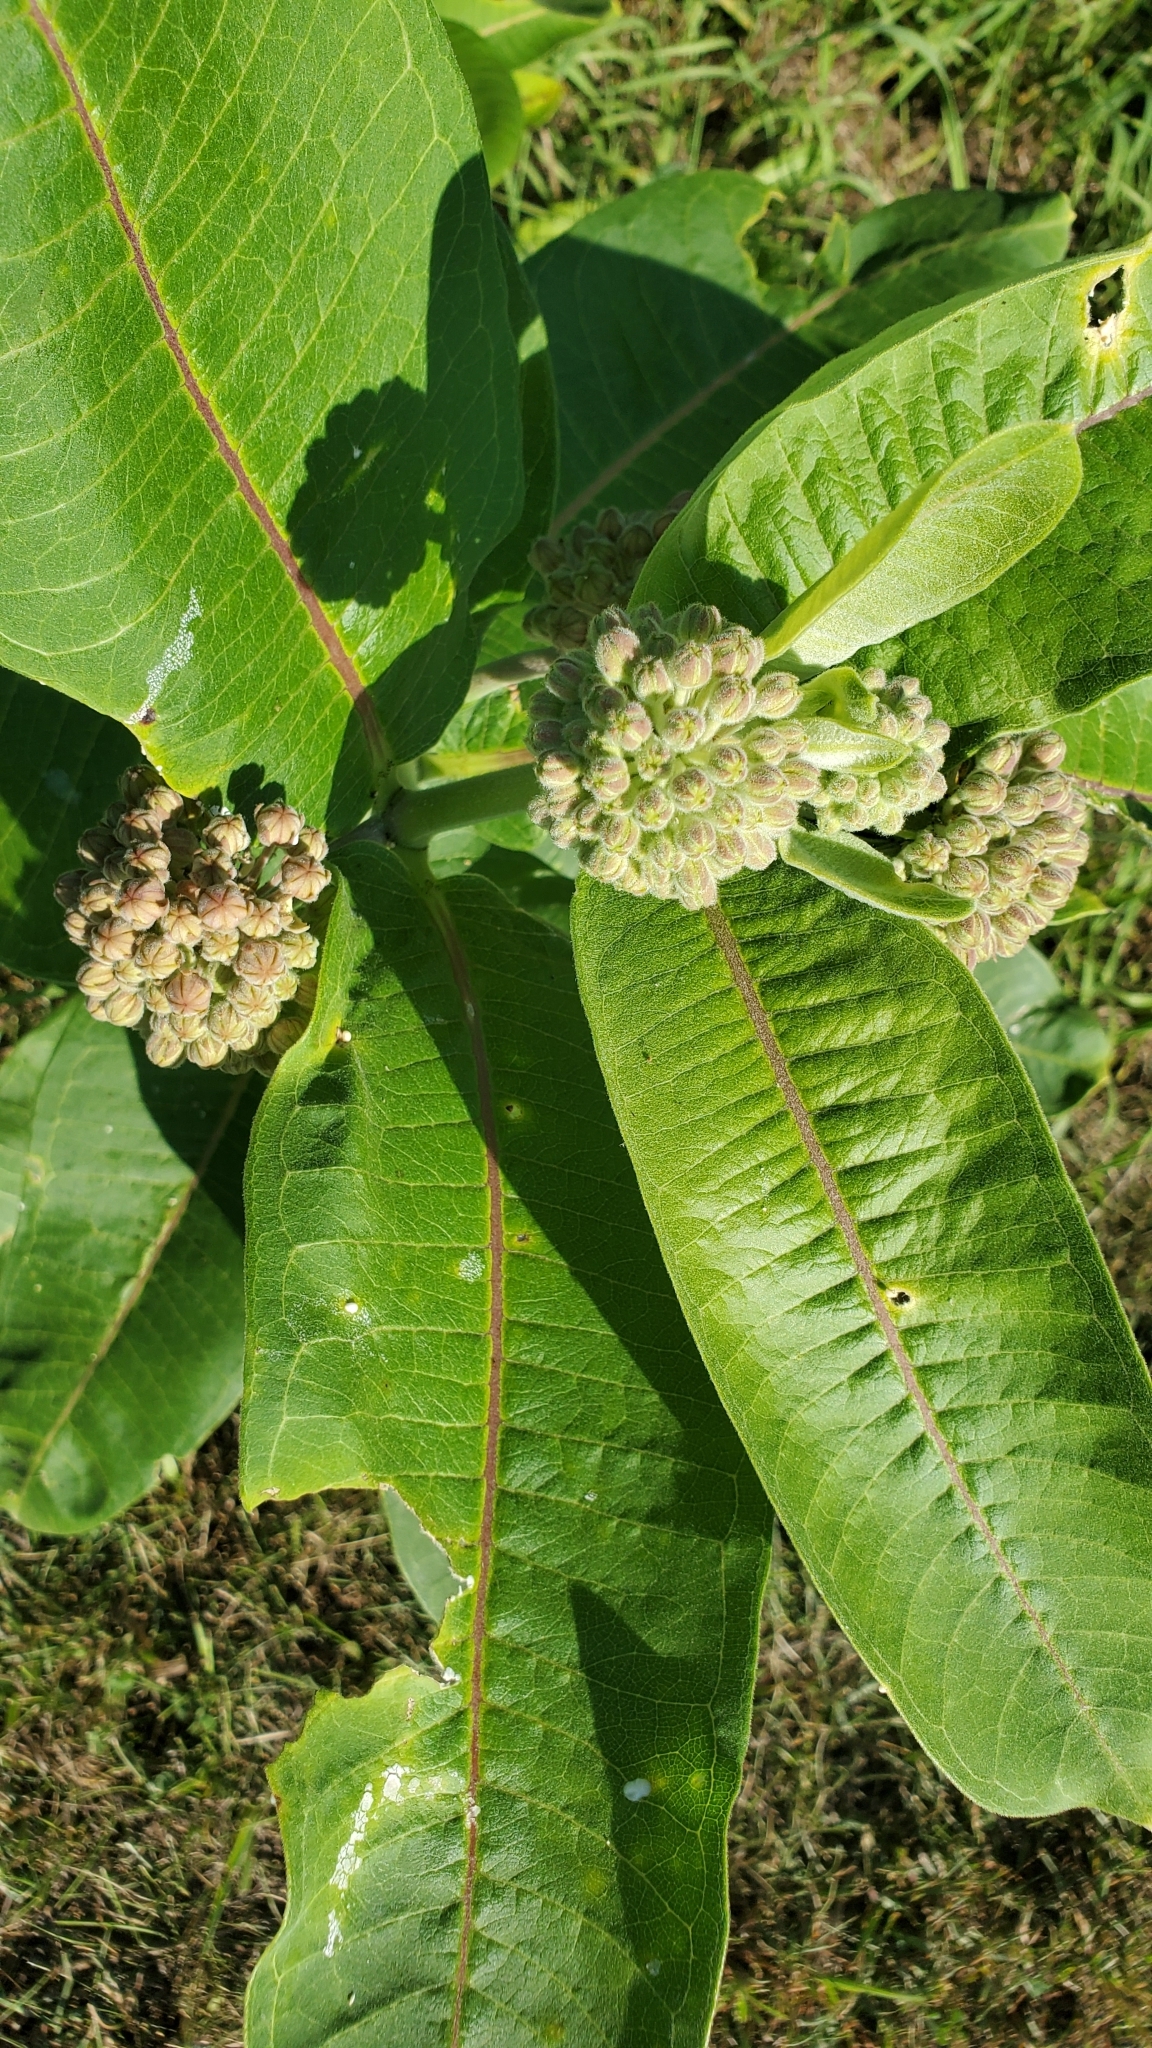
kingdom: Plantae
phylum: Tracheophyta
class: Magnoliopsida
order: Gentianales
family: Apocynaceae
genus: Asclepias
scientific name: Asclepias syriaca
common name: Common milkweed
